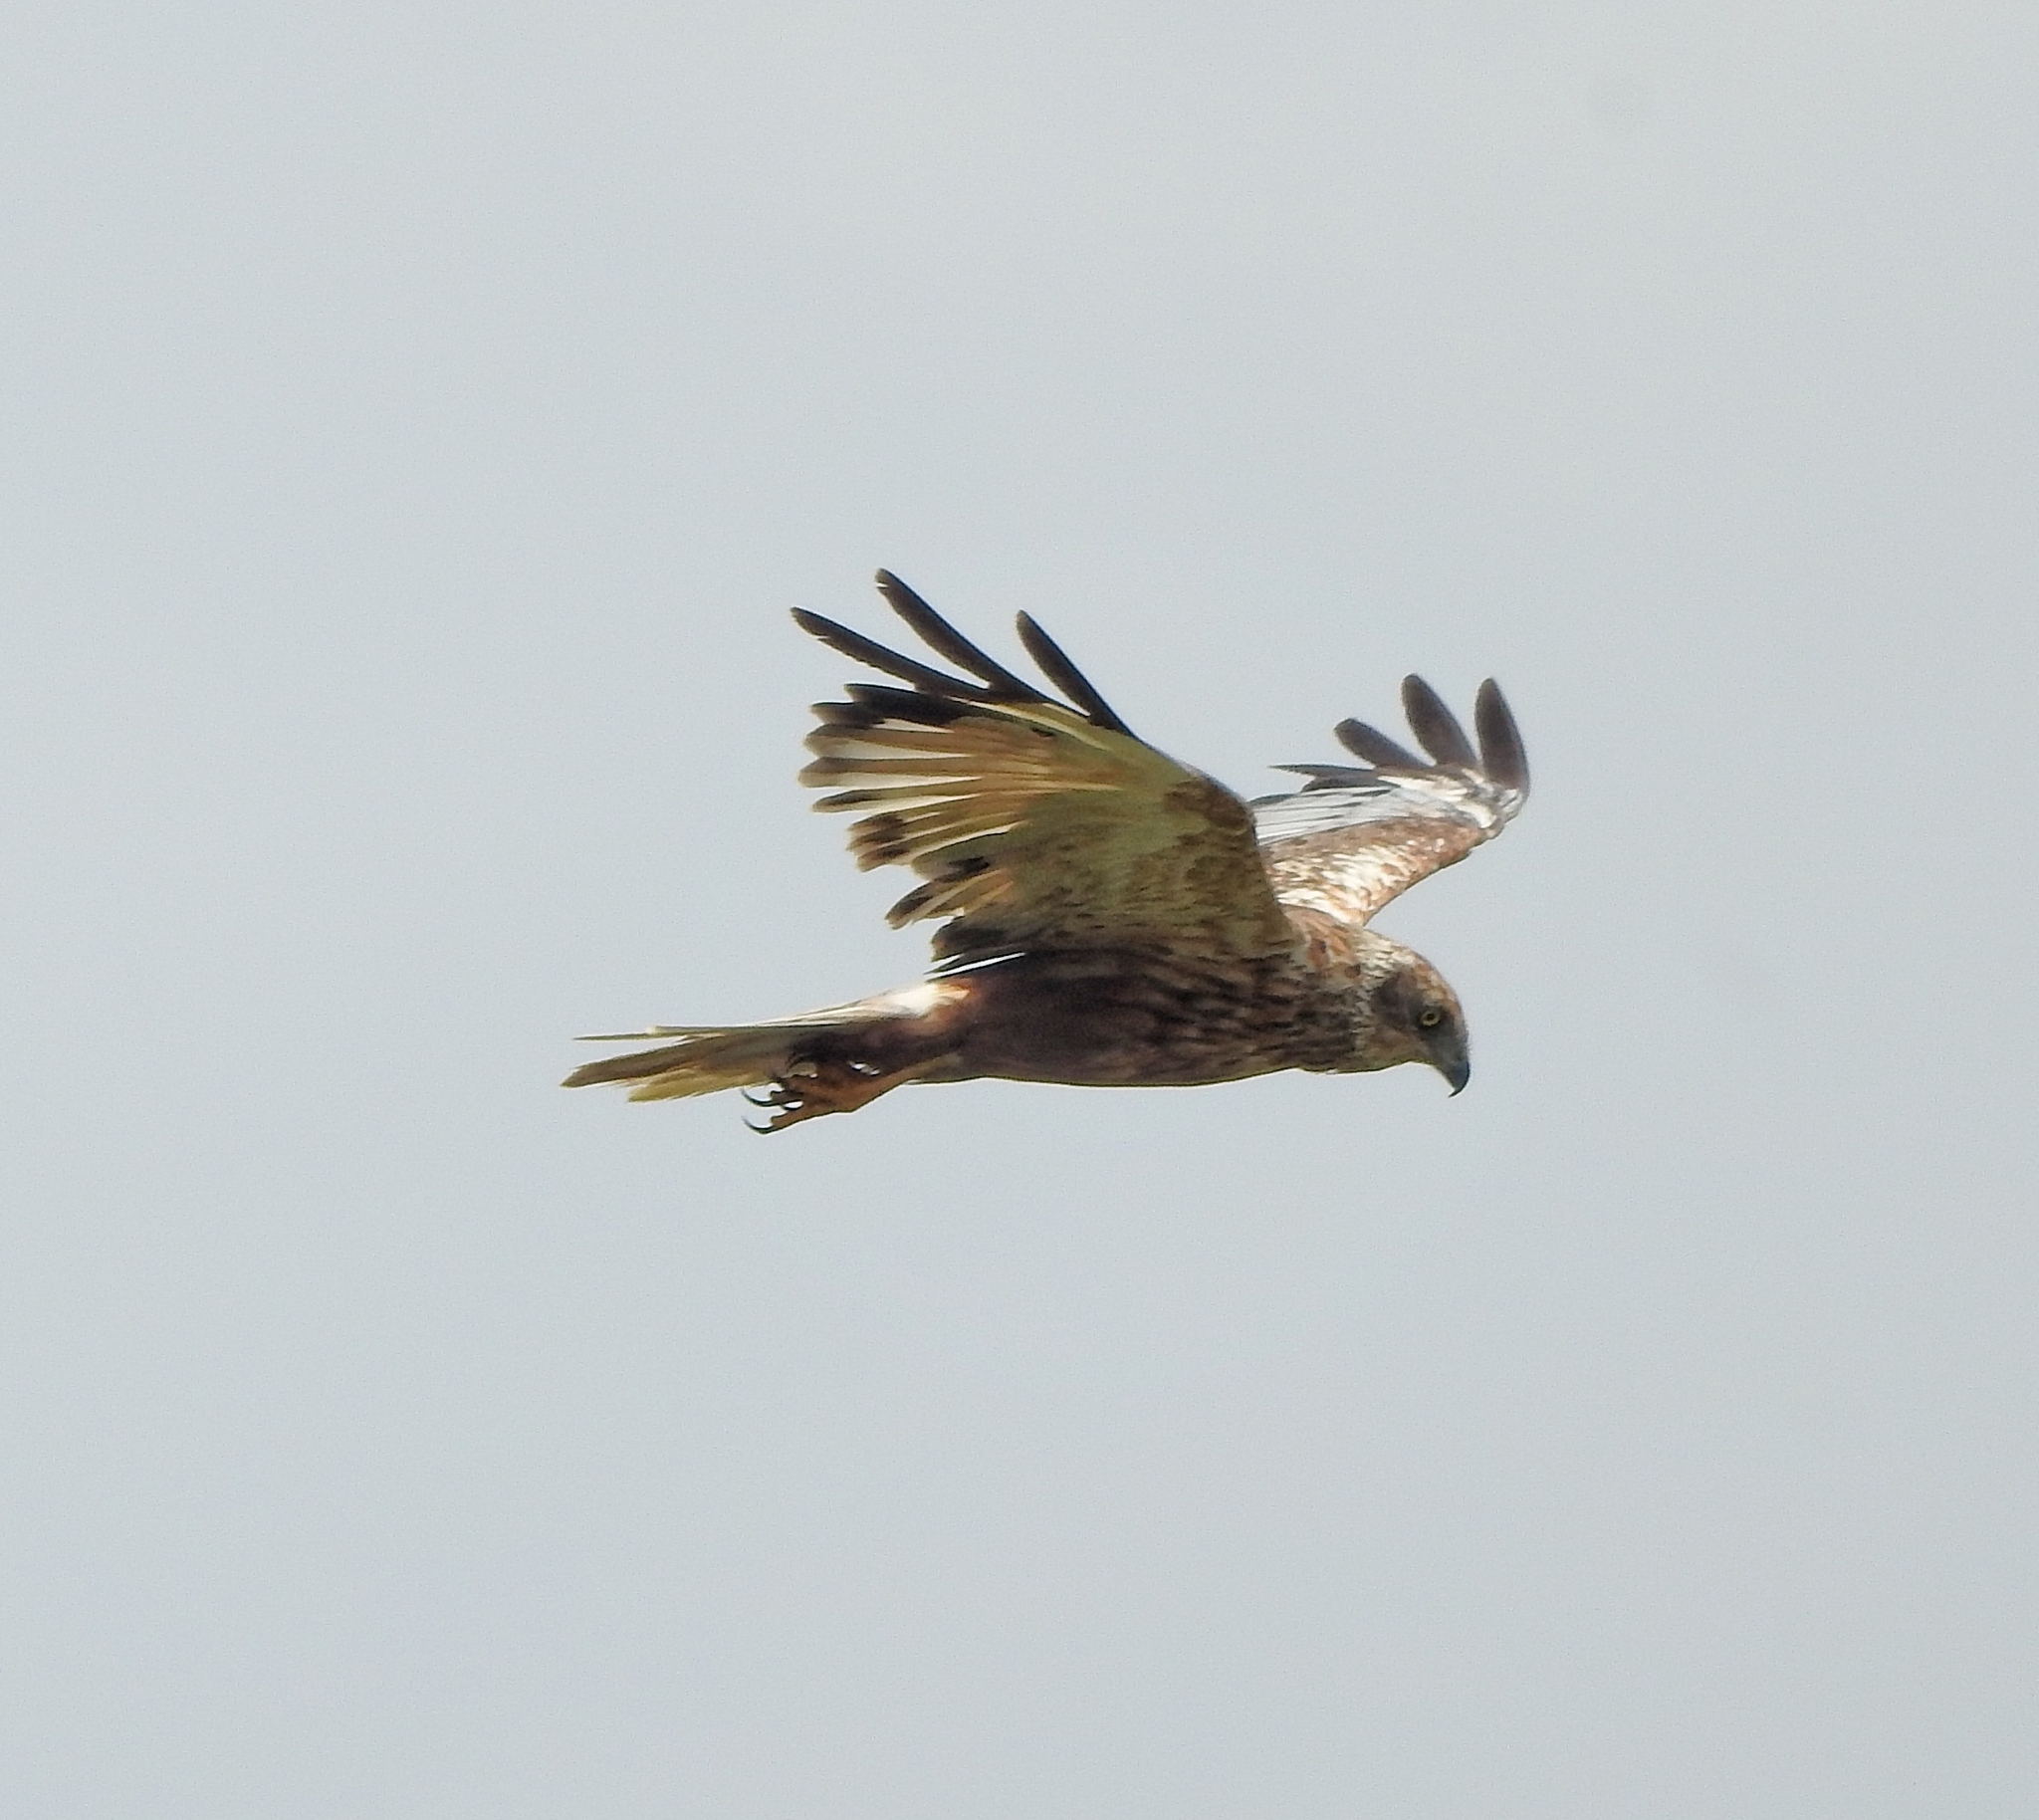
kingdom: Animalia
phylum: Chordata
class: Aves
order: Accipitriformes
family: Accipitridae
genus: Circus
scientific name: Circus aeruginosus
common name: Western marsh harrier
